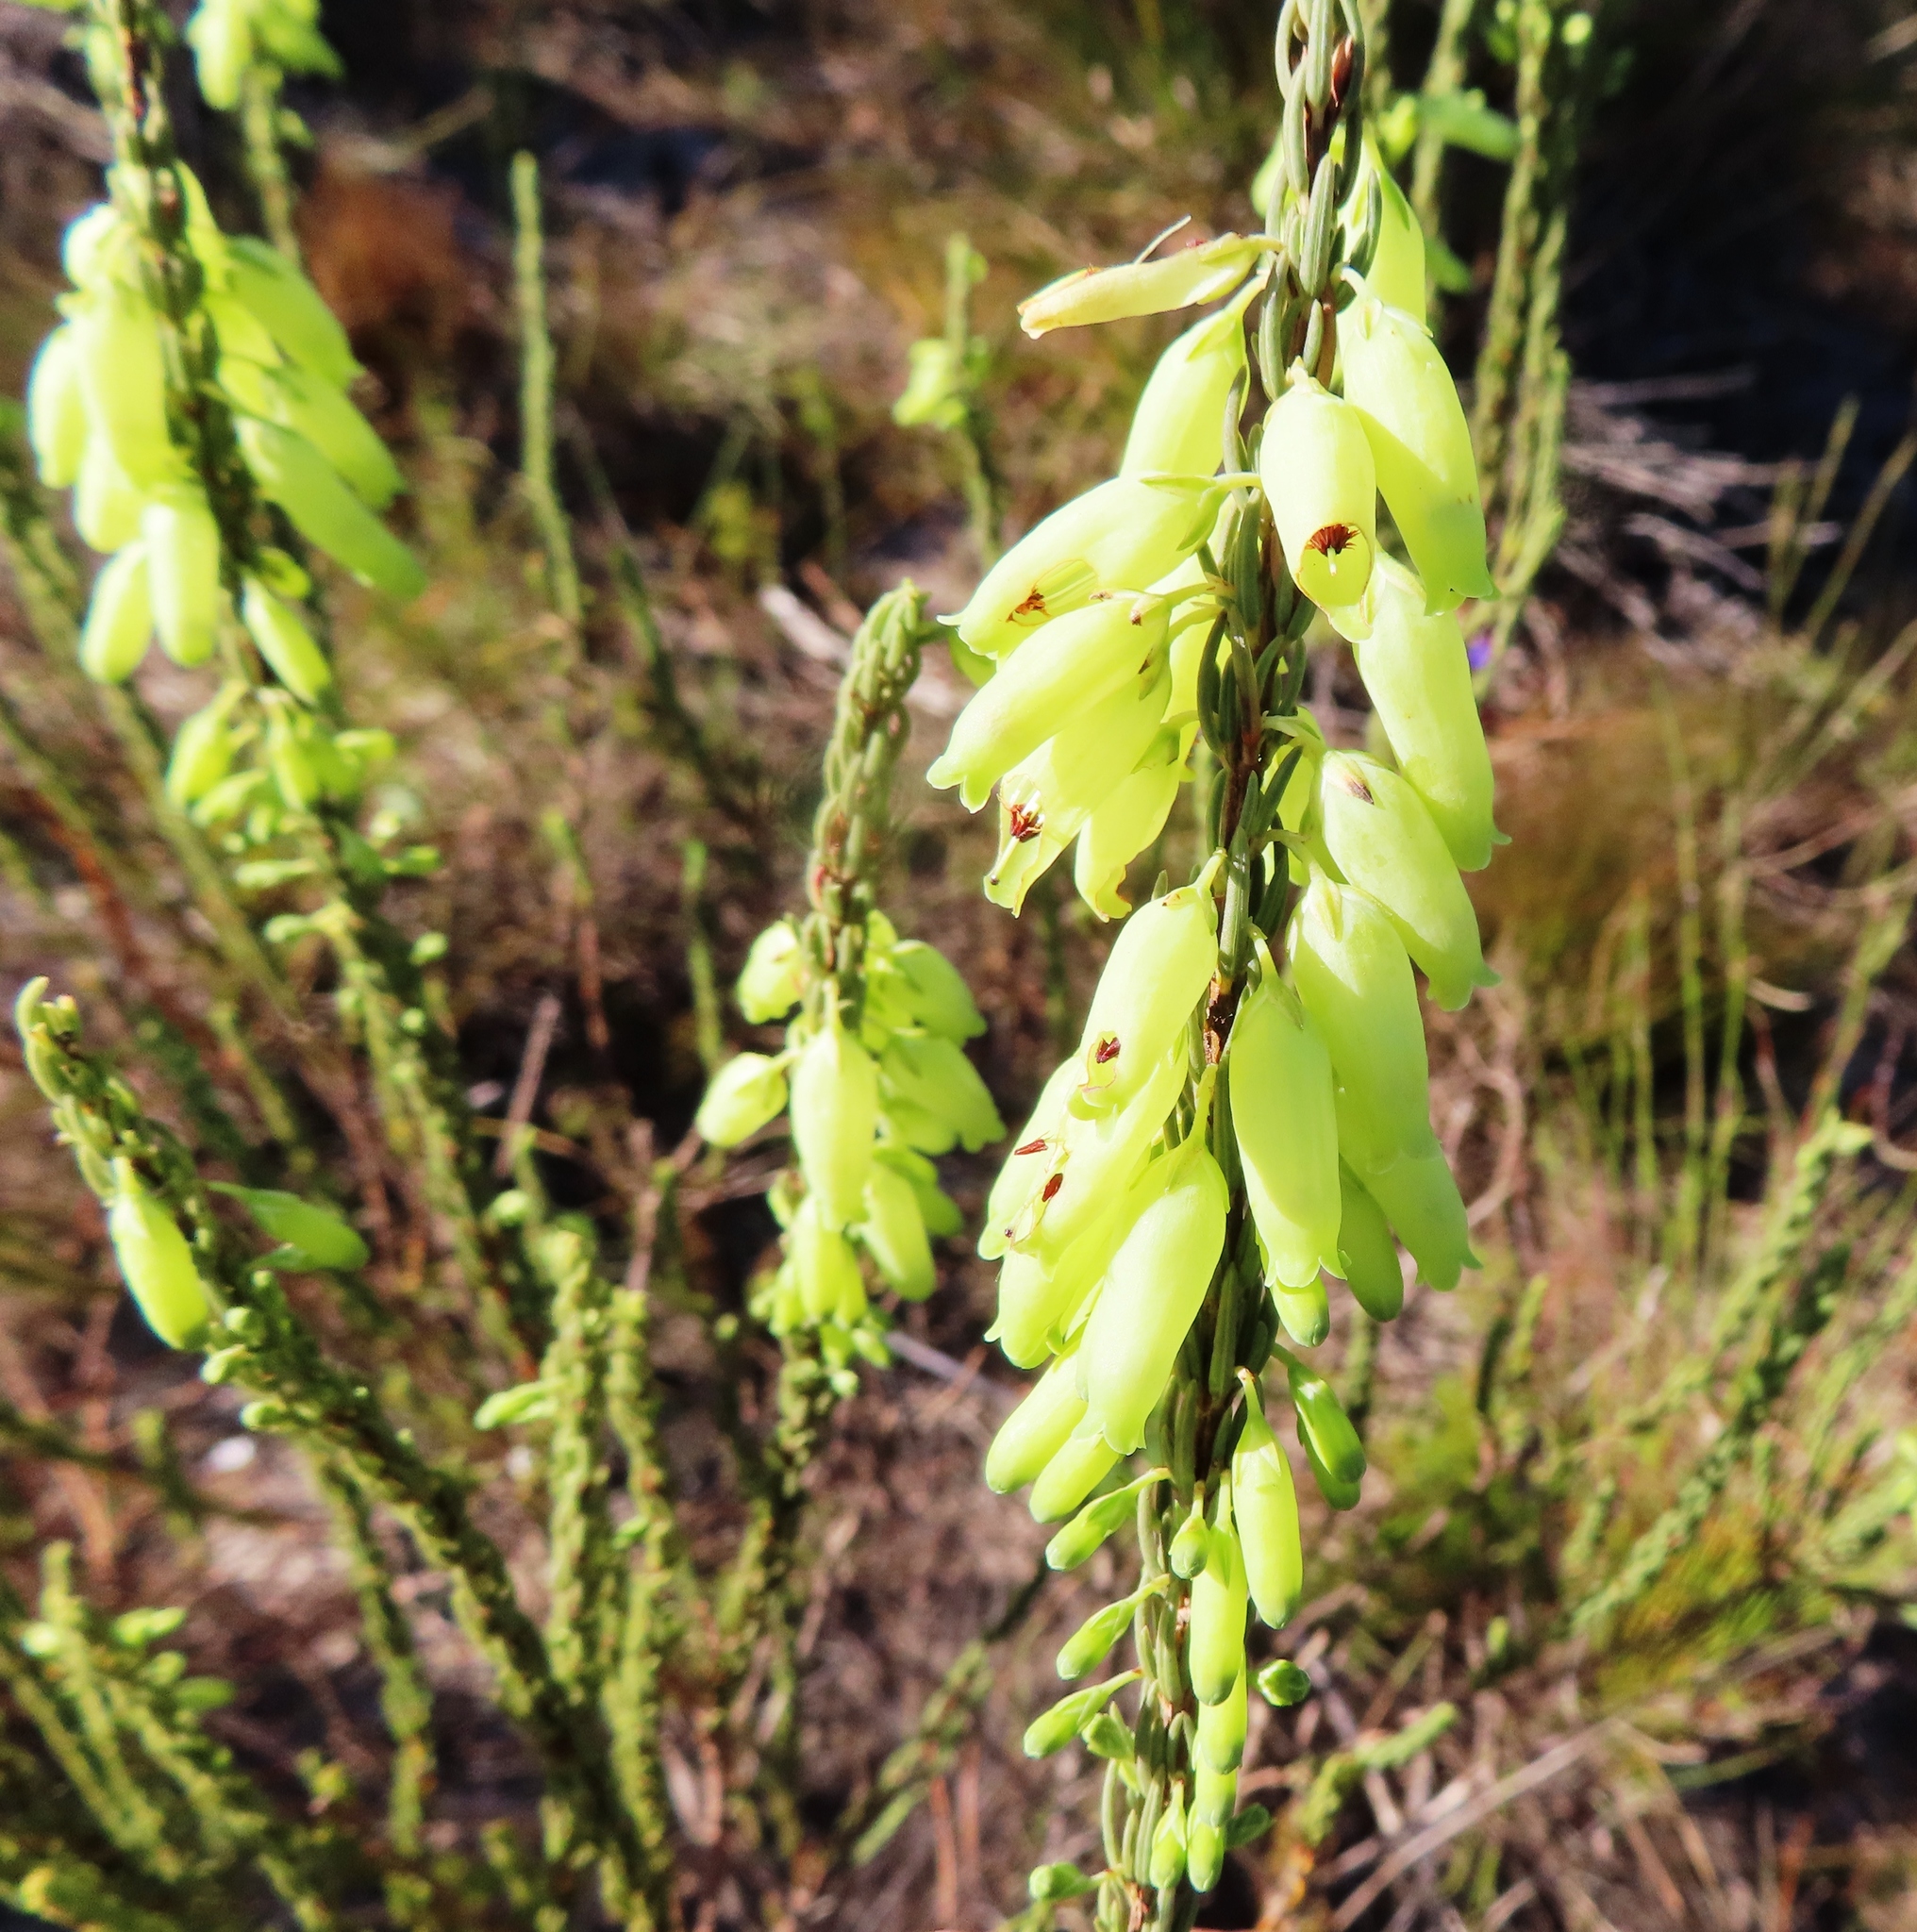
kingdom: Plantae
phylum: Tracheophyta
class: Magnoliopsida
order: Ericales
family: Ericaceae
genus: Erica
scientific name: Erica penduliflora
